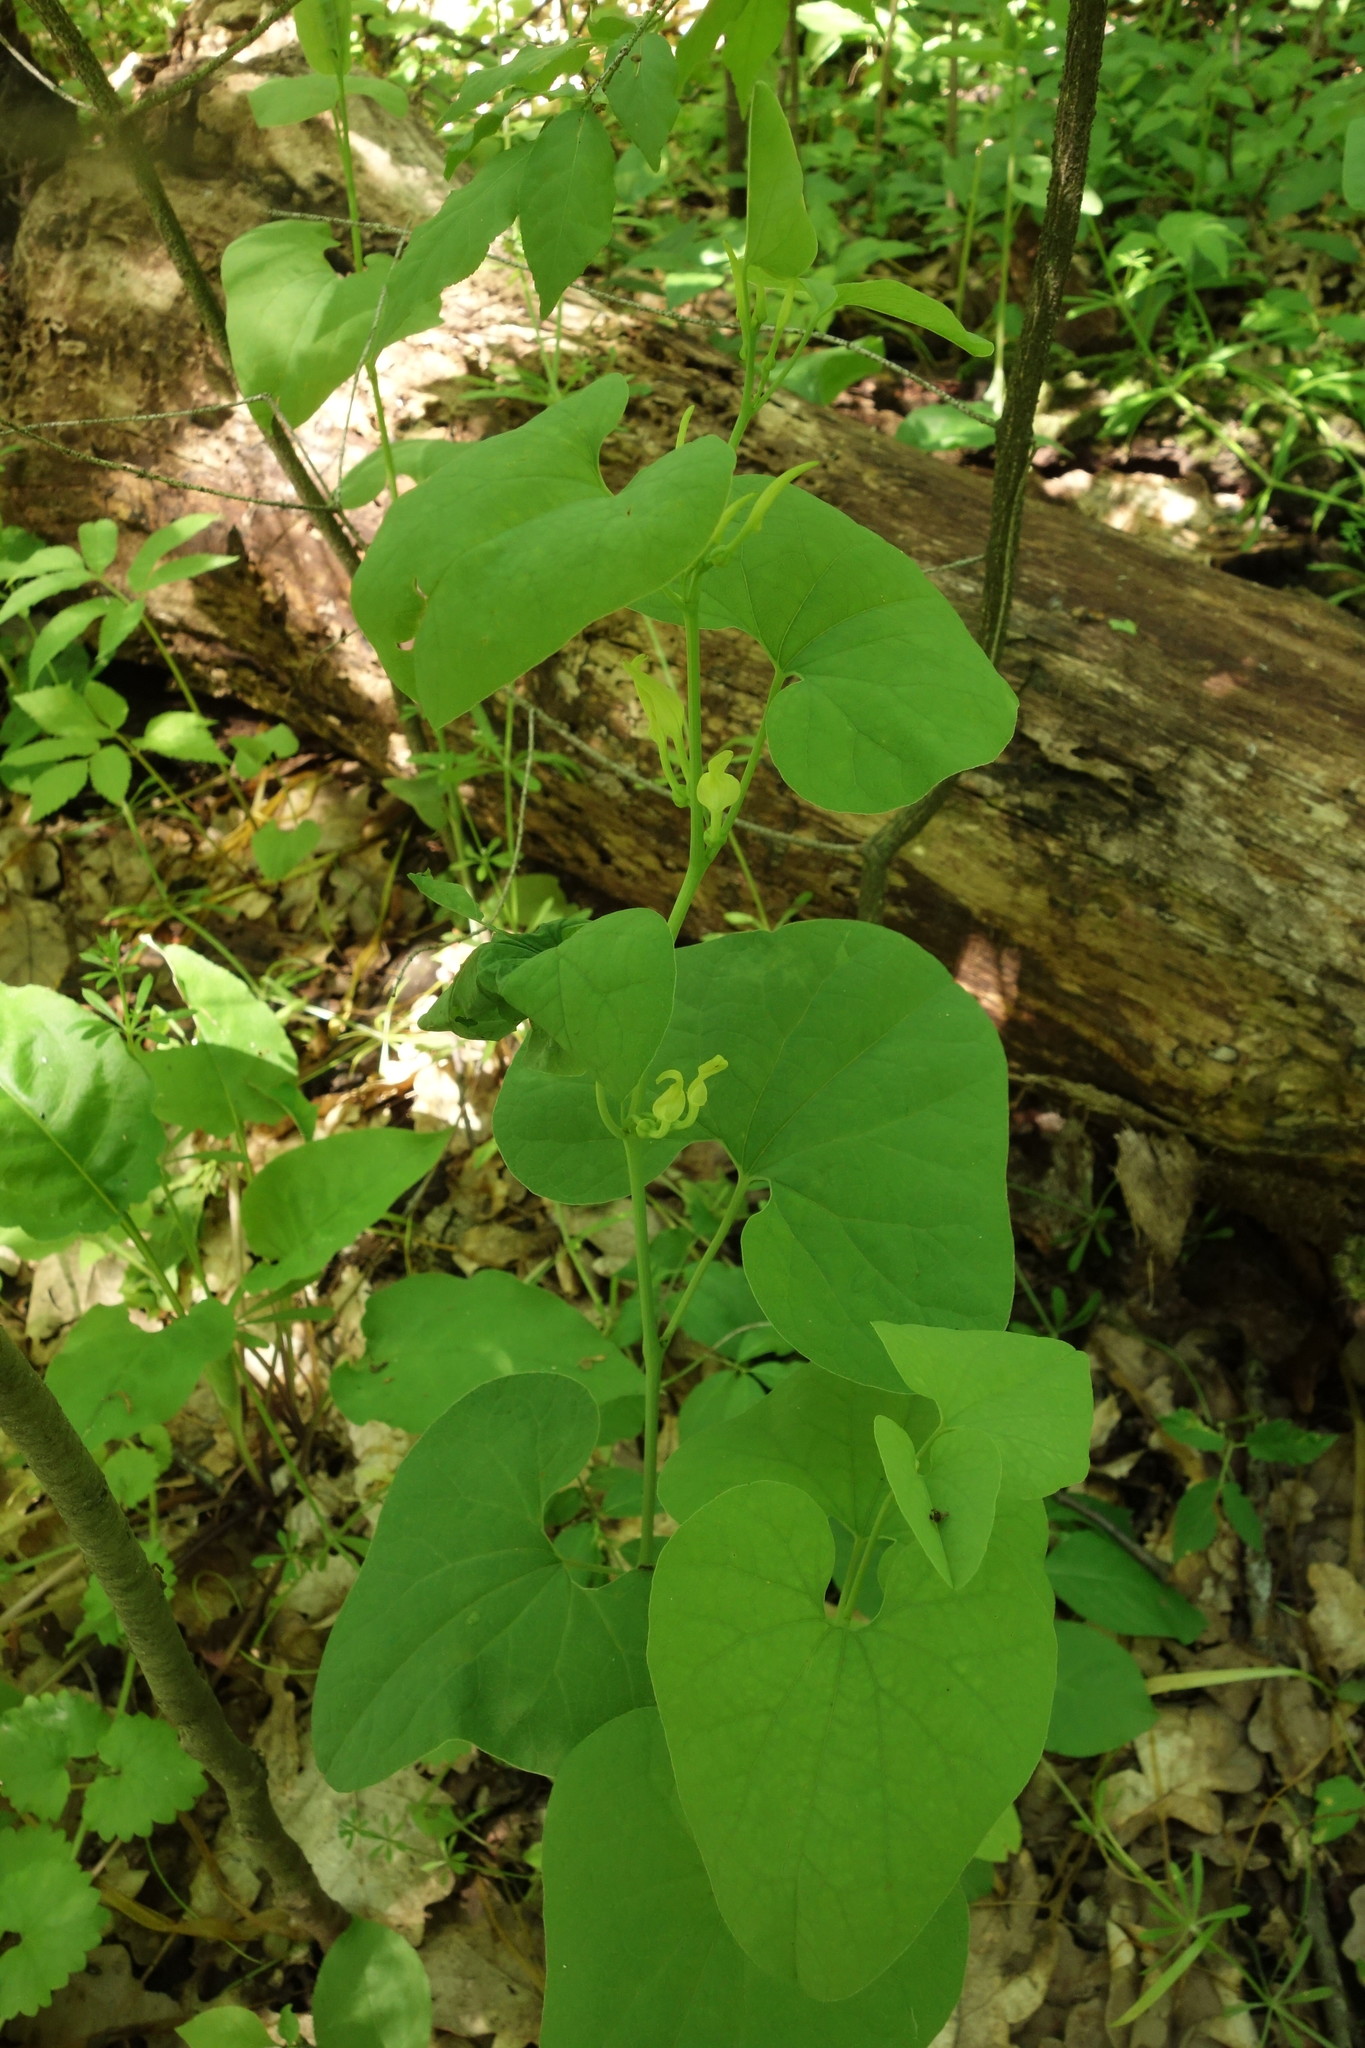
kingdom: Plantae
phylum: Tracheophyta
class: Magnoliopsida
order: Piperales
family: Aristolochiaceae
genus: Aristolochia
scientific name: Aristolochia clematitis
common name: Birthwort
